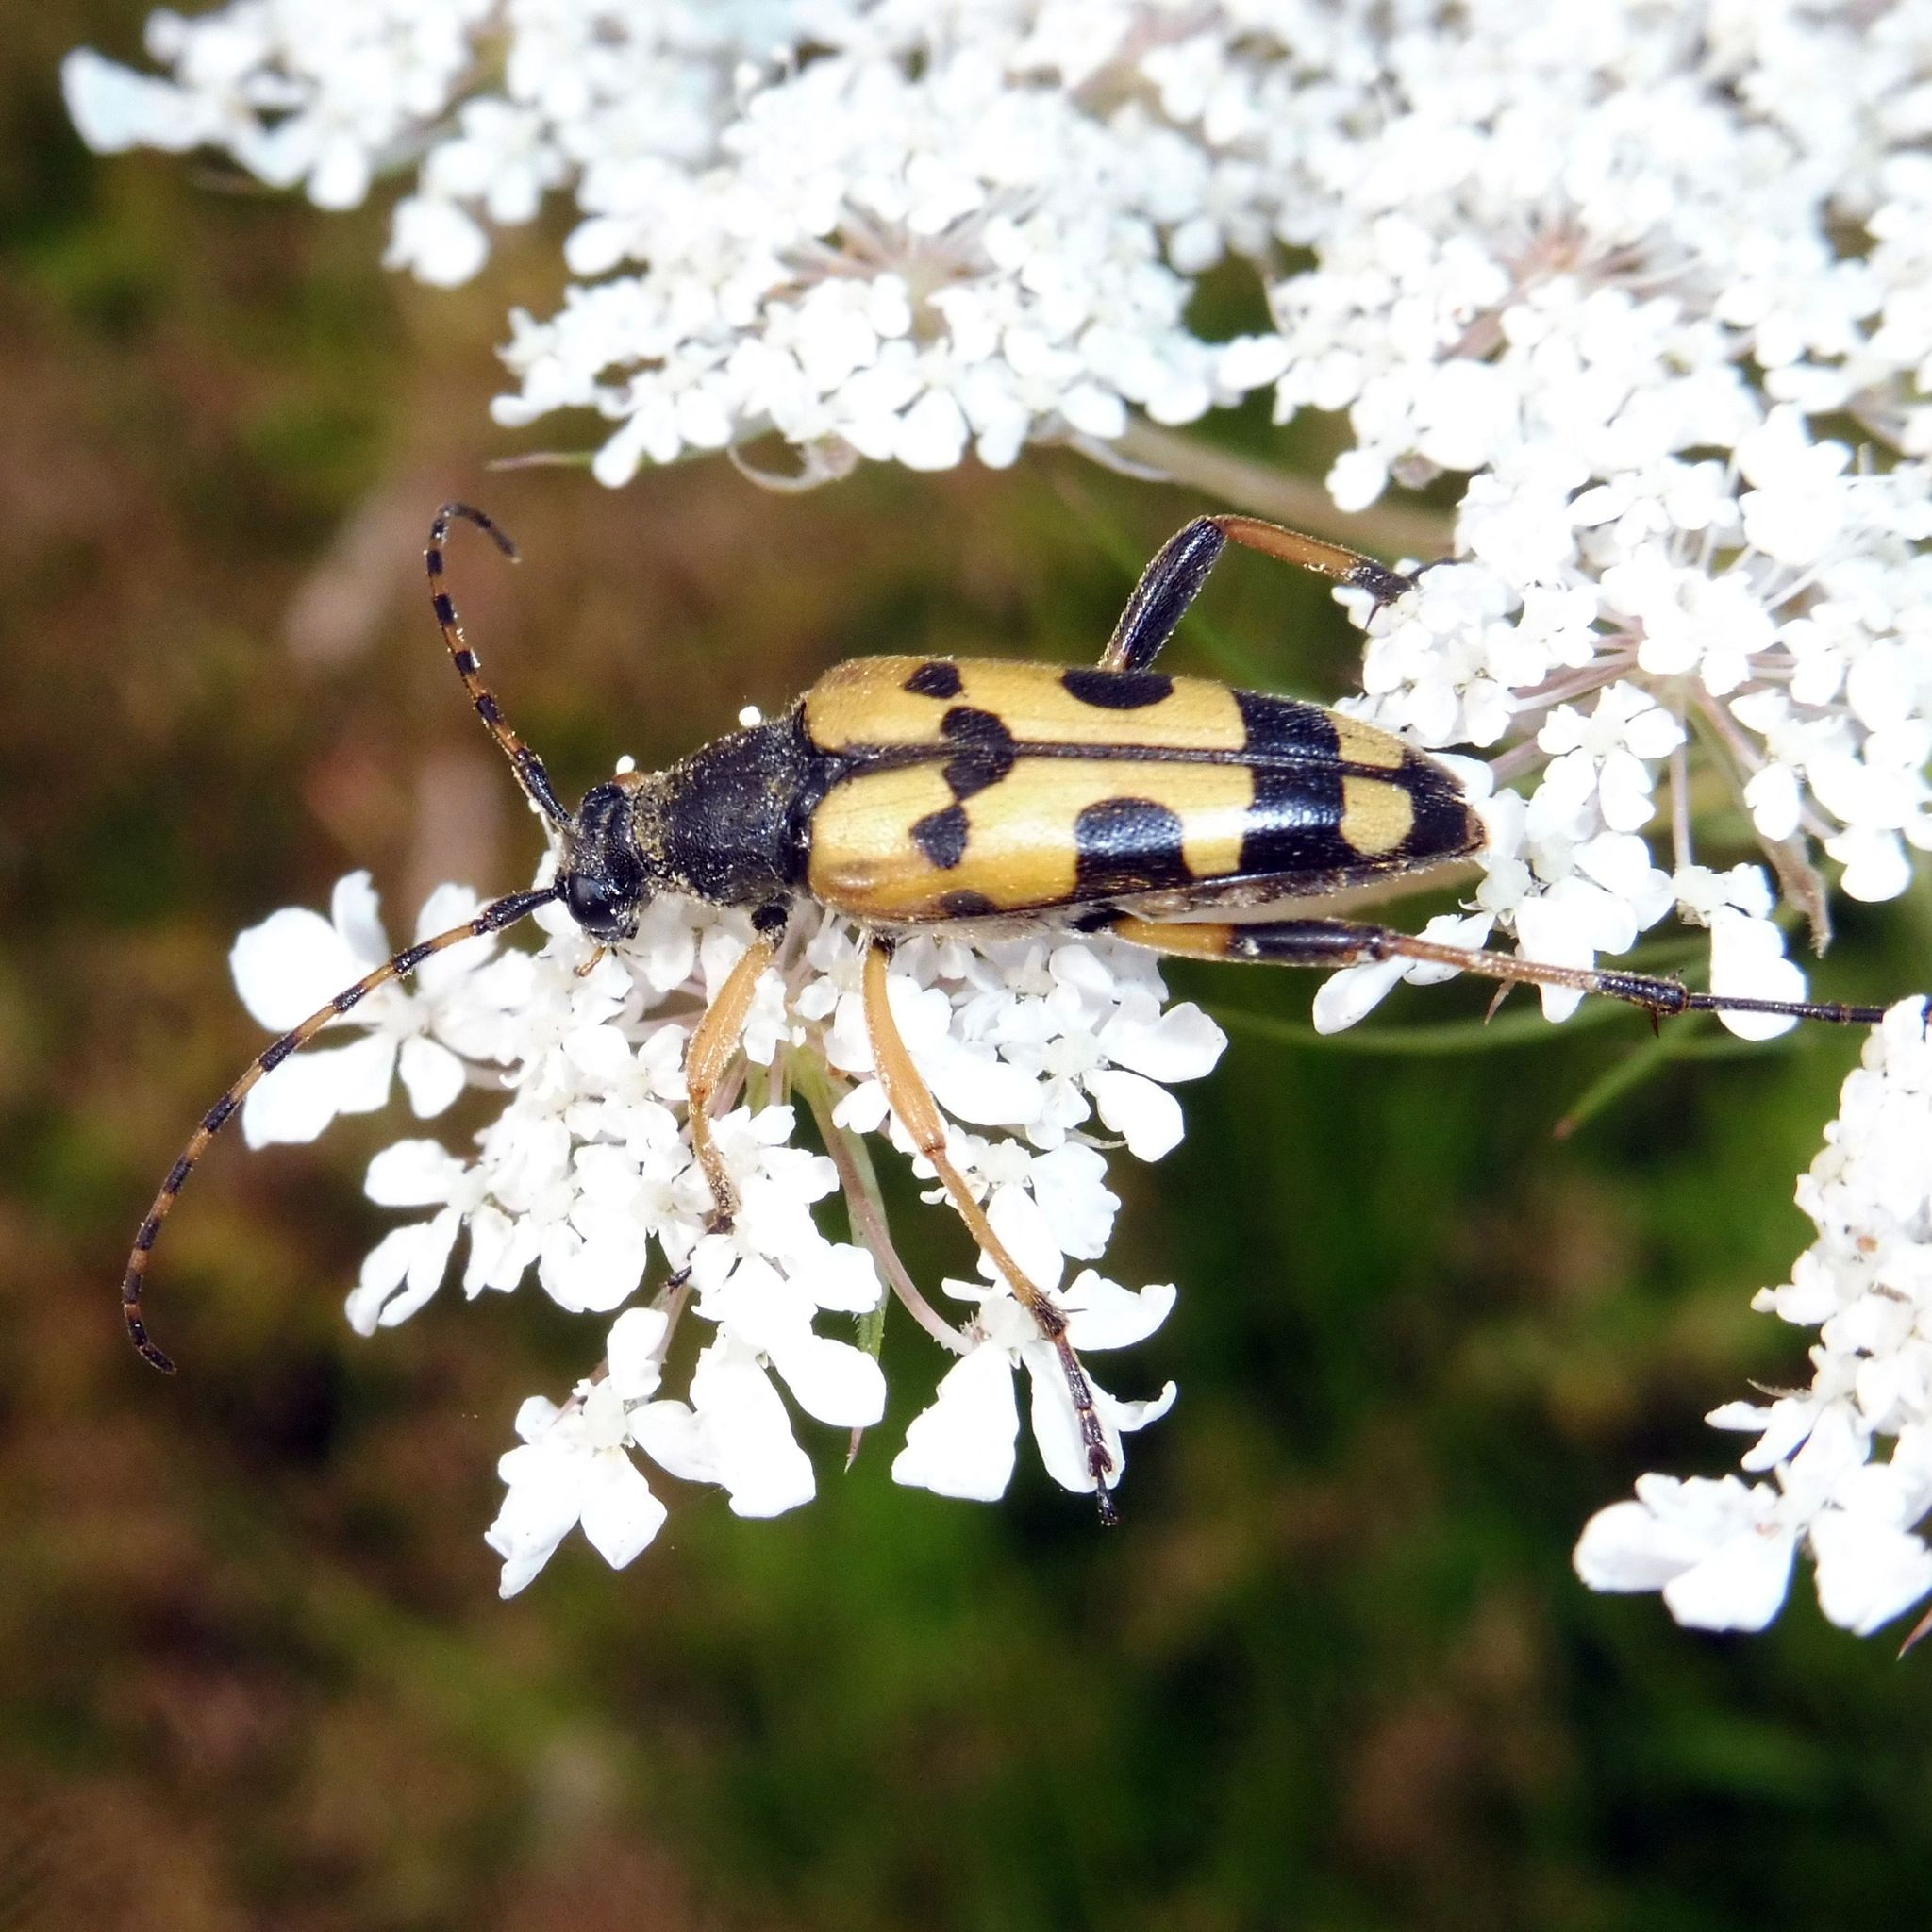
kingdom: Animalia
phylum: Arthropoda
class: Insecta
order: Coleoptera
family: Cerambycidae
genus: Rutpela
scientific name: Rutpela maculata
